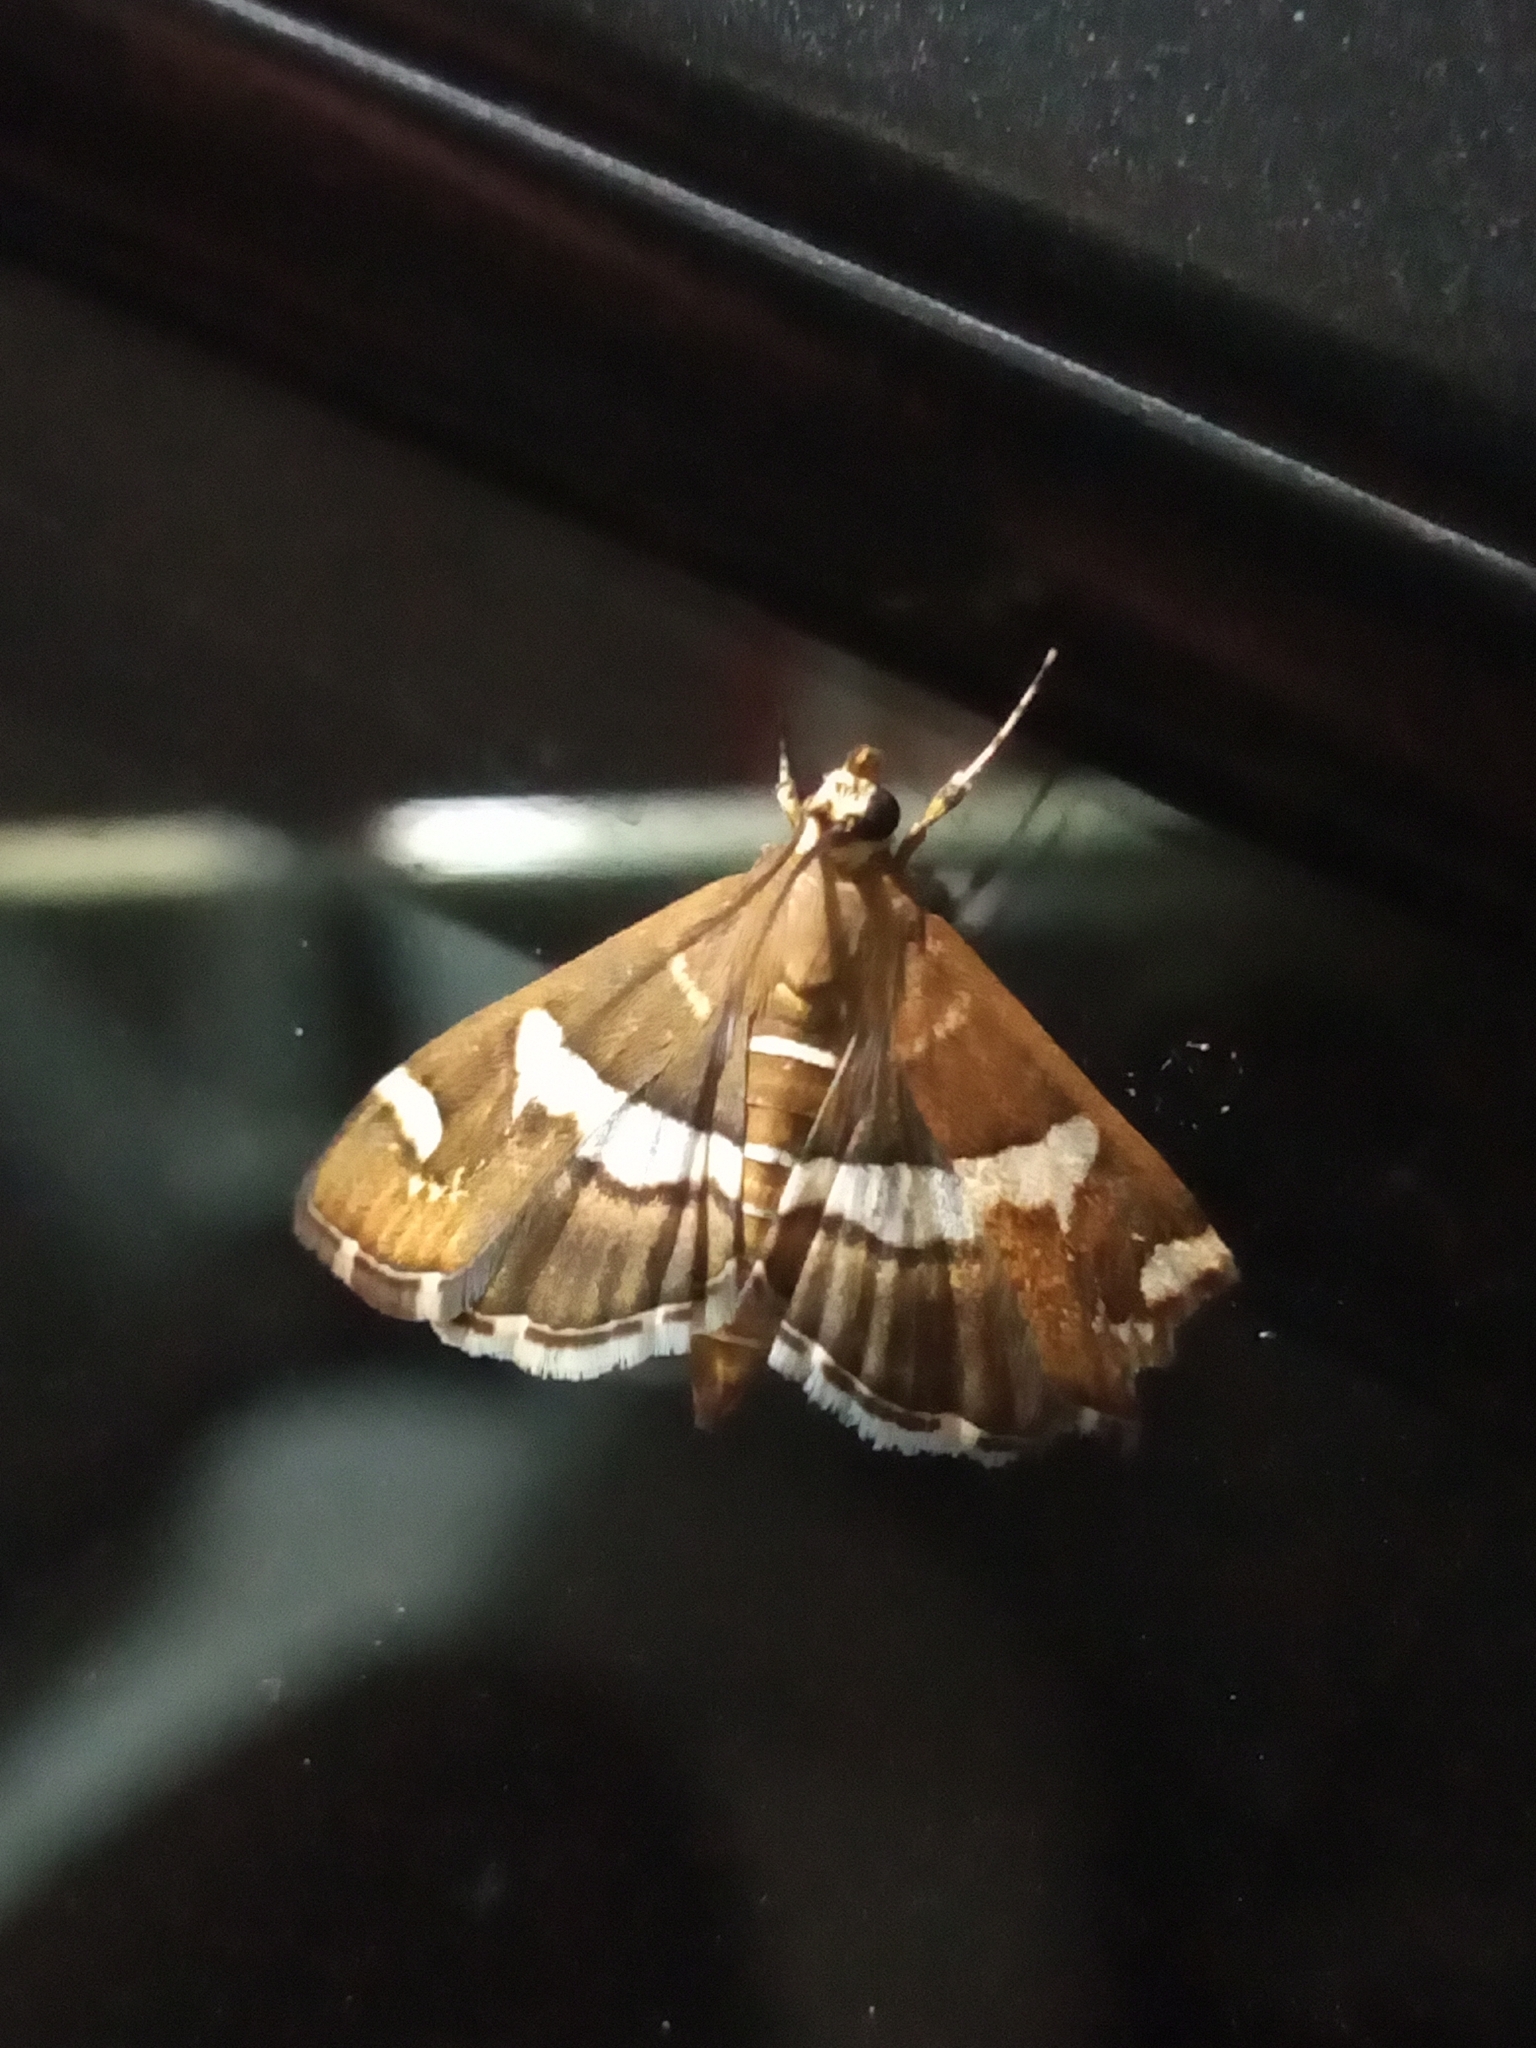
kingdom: Animalia
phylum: Arthropoda
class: Insecta
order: Lepidoptera
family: Crambidae
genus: Spoladea
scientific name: Spoladea recurvalis
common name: Beet webworm moth
